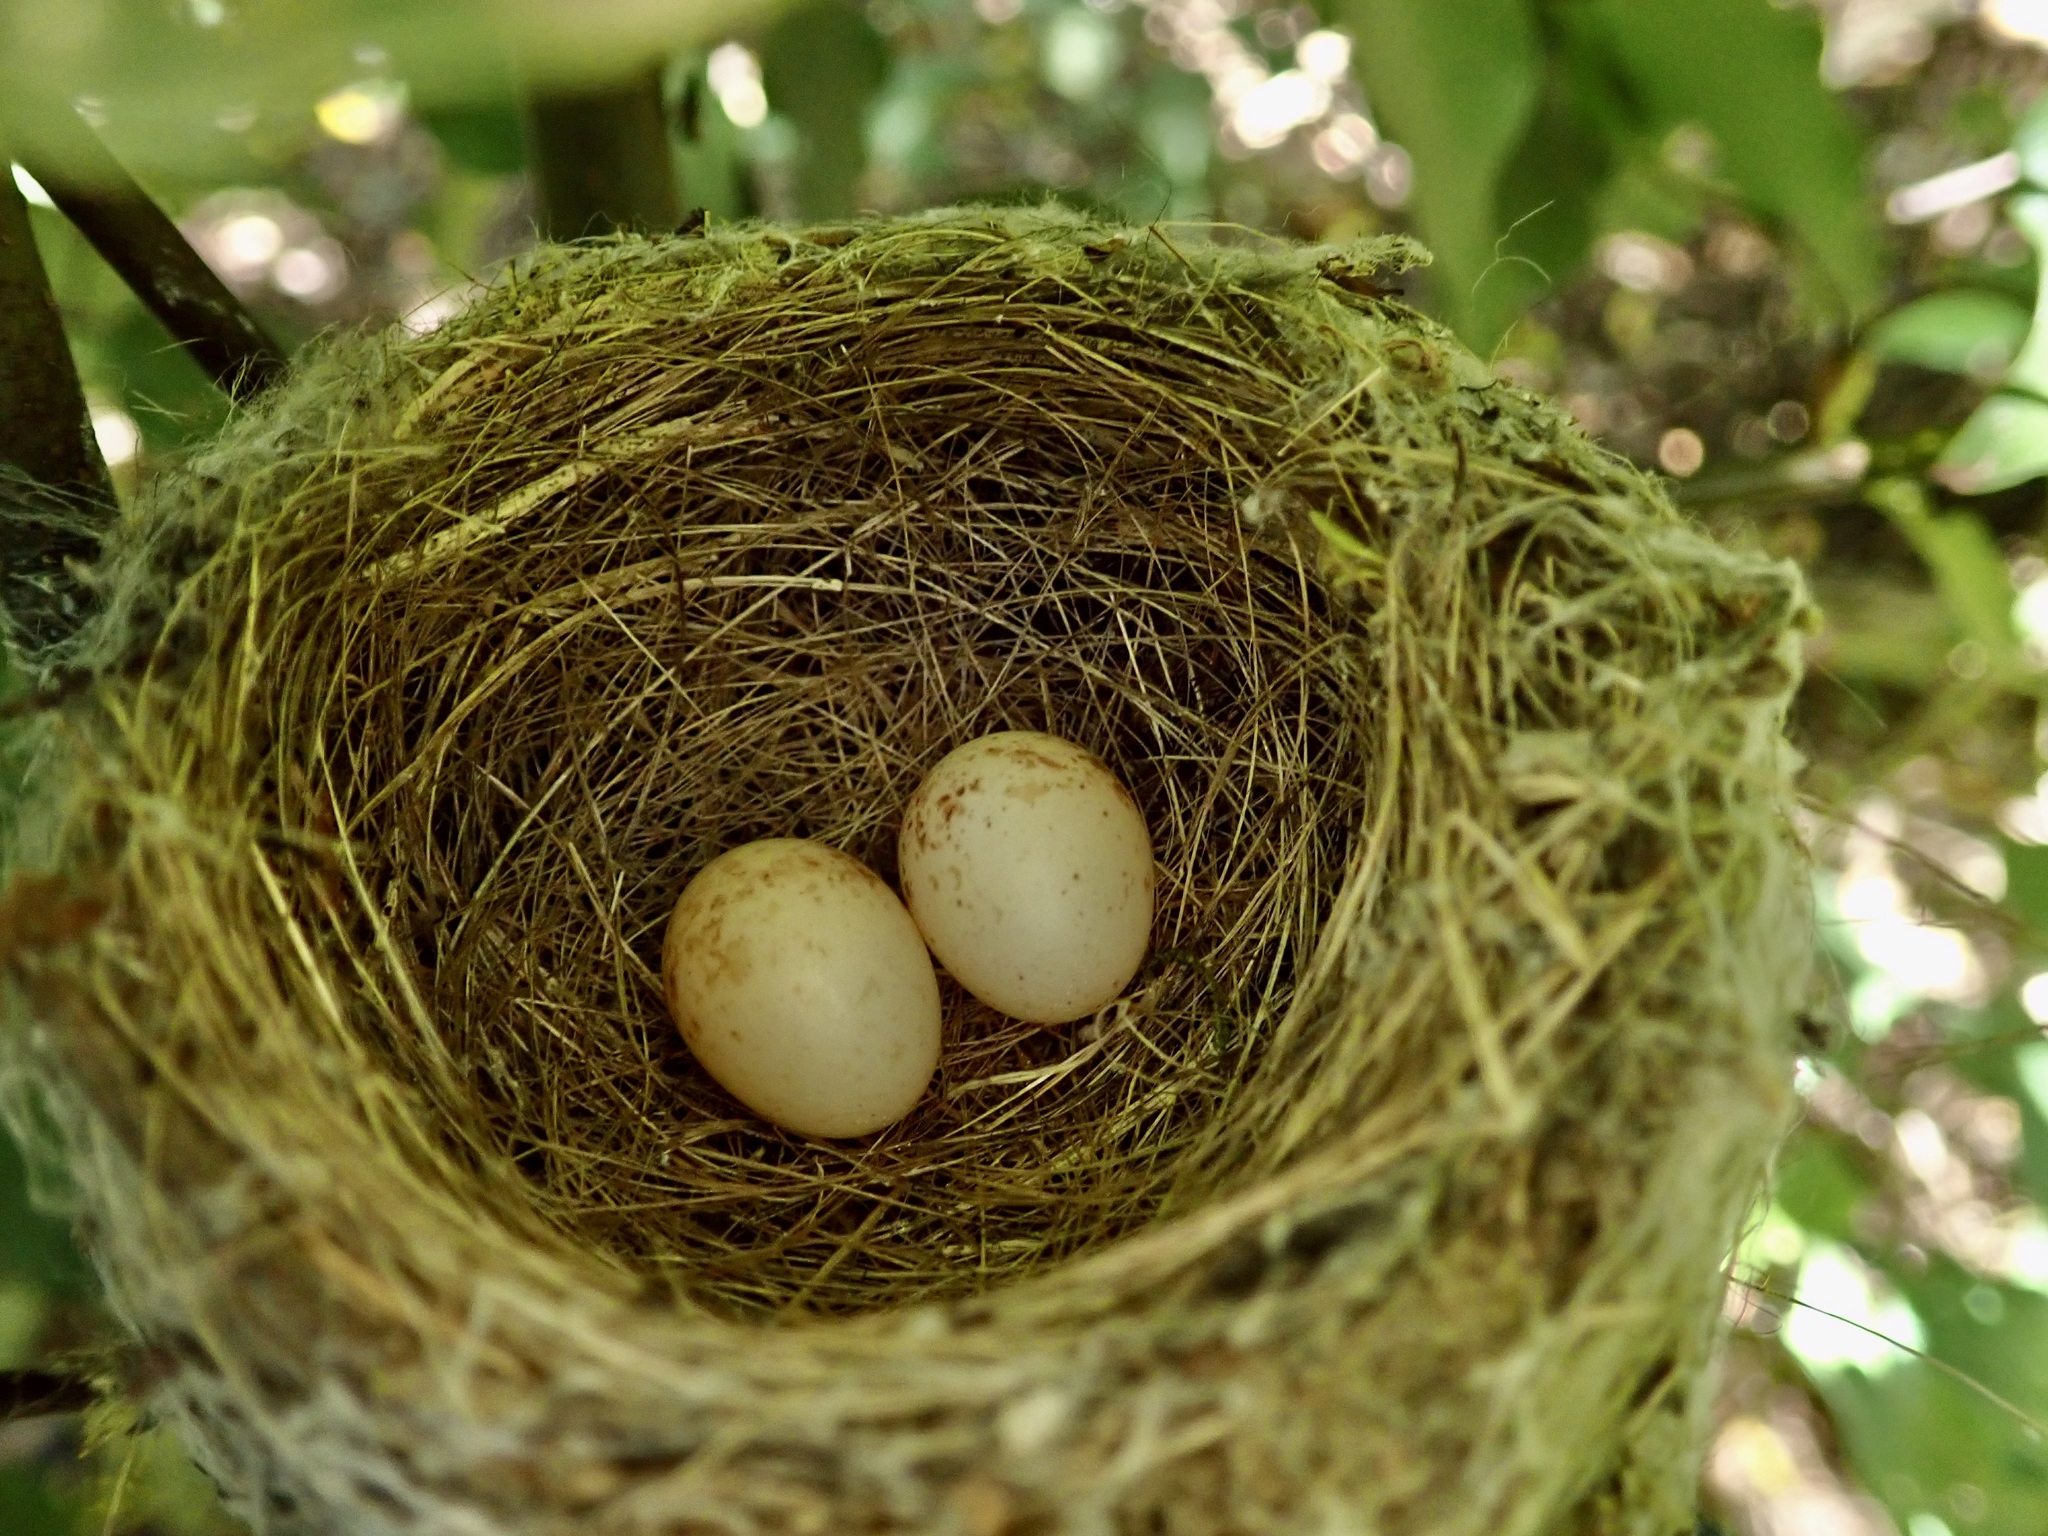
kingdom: Animalia
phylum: Chordata
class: Aves
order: Passeriformes
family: Rhipiduridae
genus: Rhipidura
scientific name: Rhipidura fuliginosa
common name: New zealand fantail
